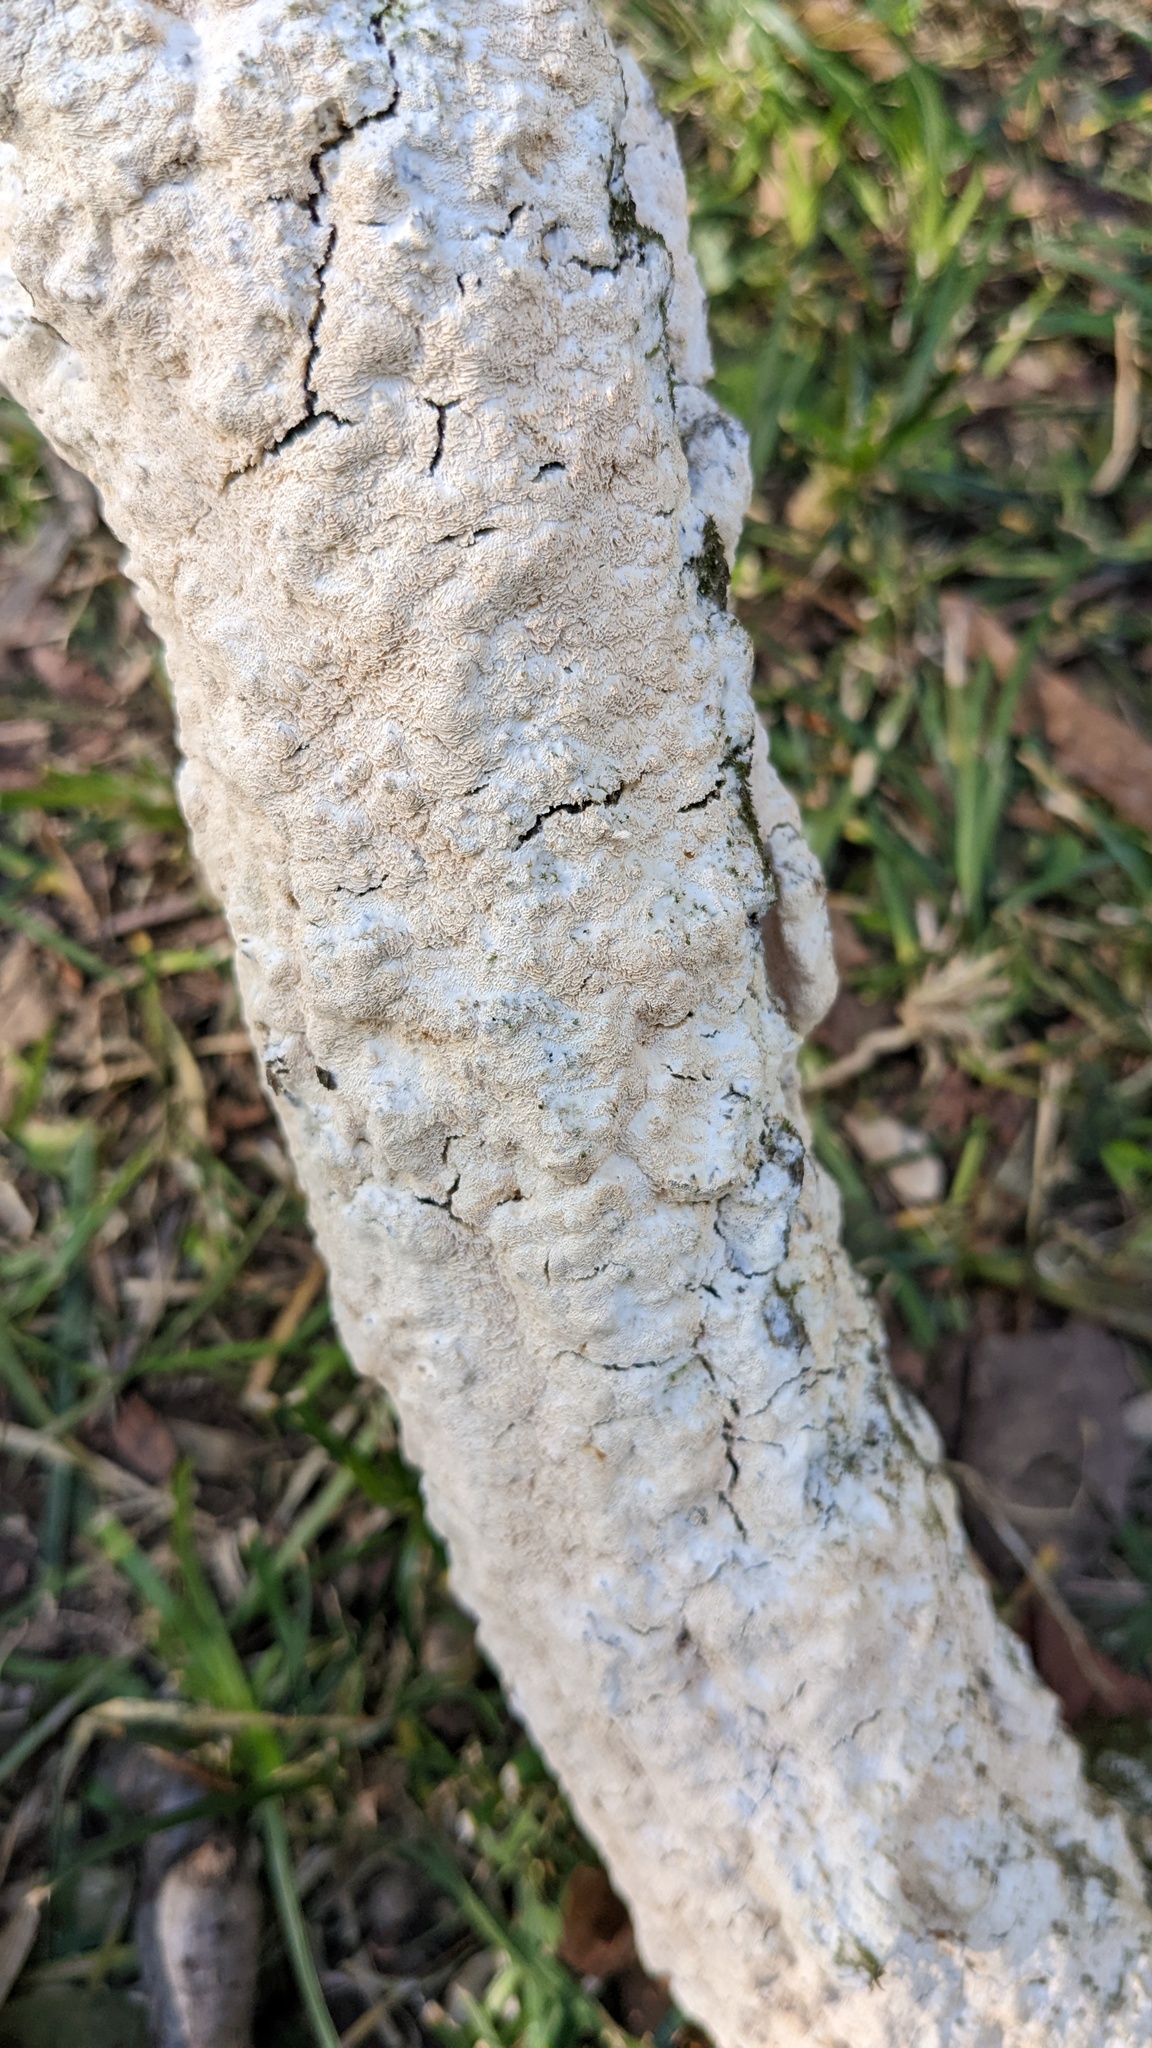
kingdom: Fungi
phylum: Basidiomycota
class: Agaricomycetes
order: Hymenochaetales
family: Schizoporaceae
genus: Xylodon
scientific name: Xylodon flaviporus
